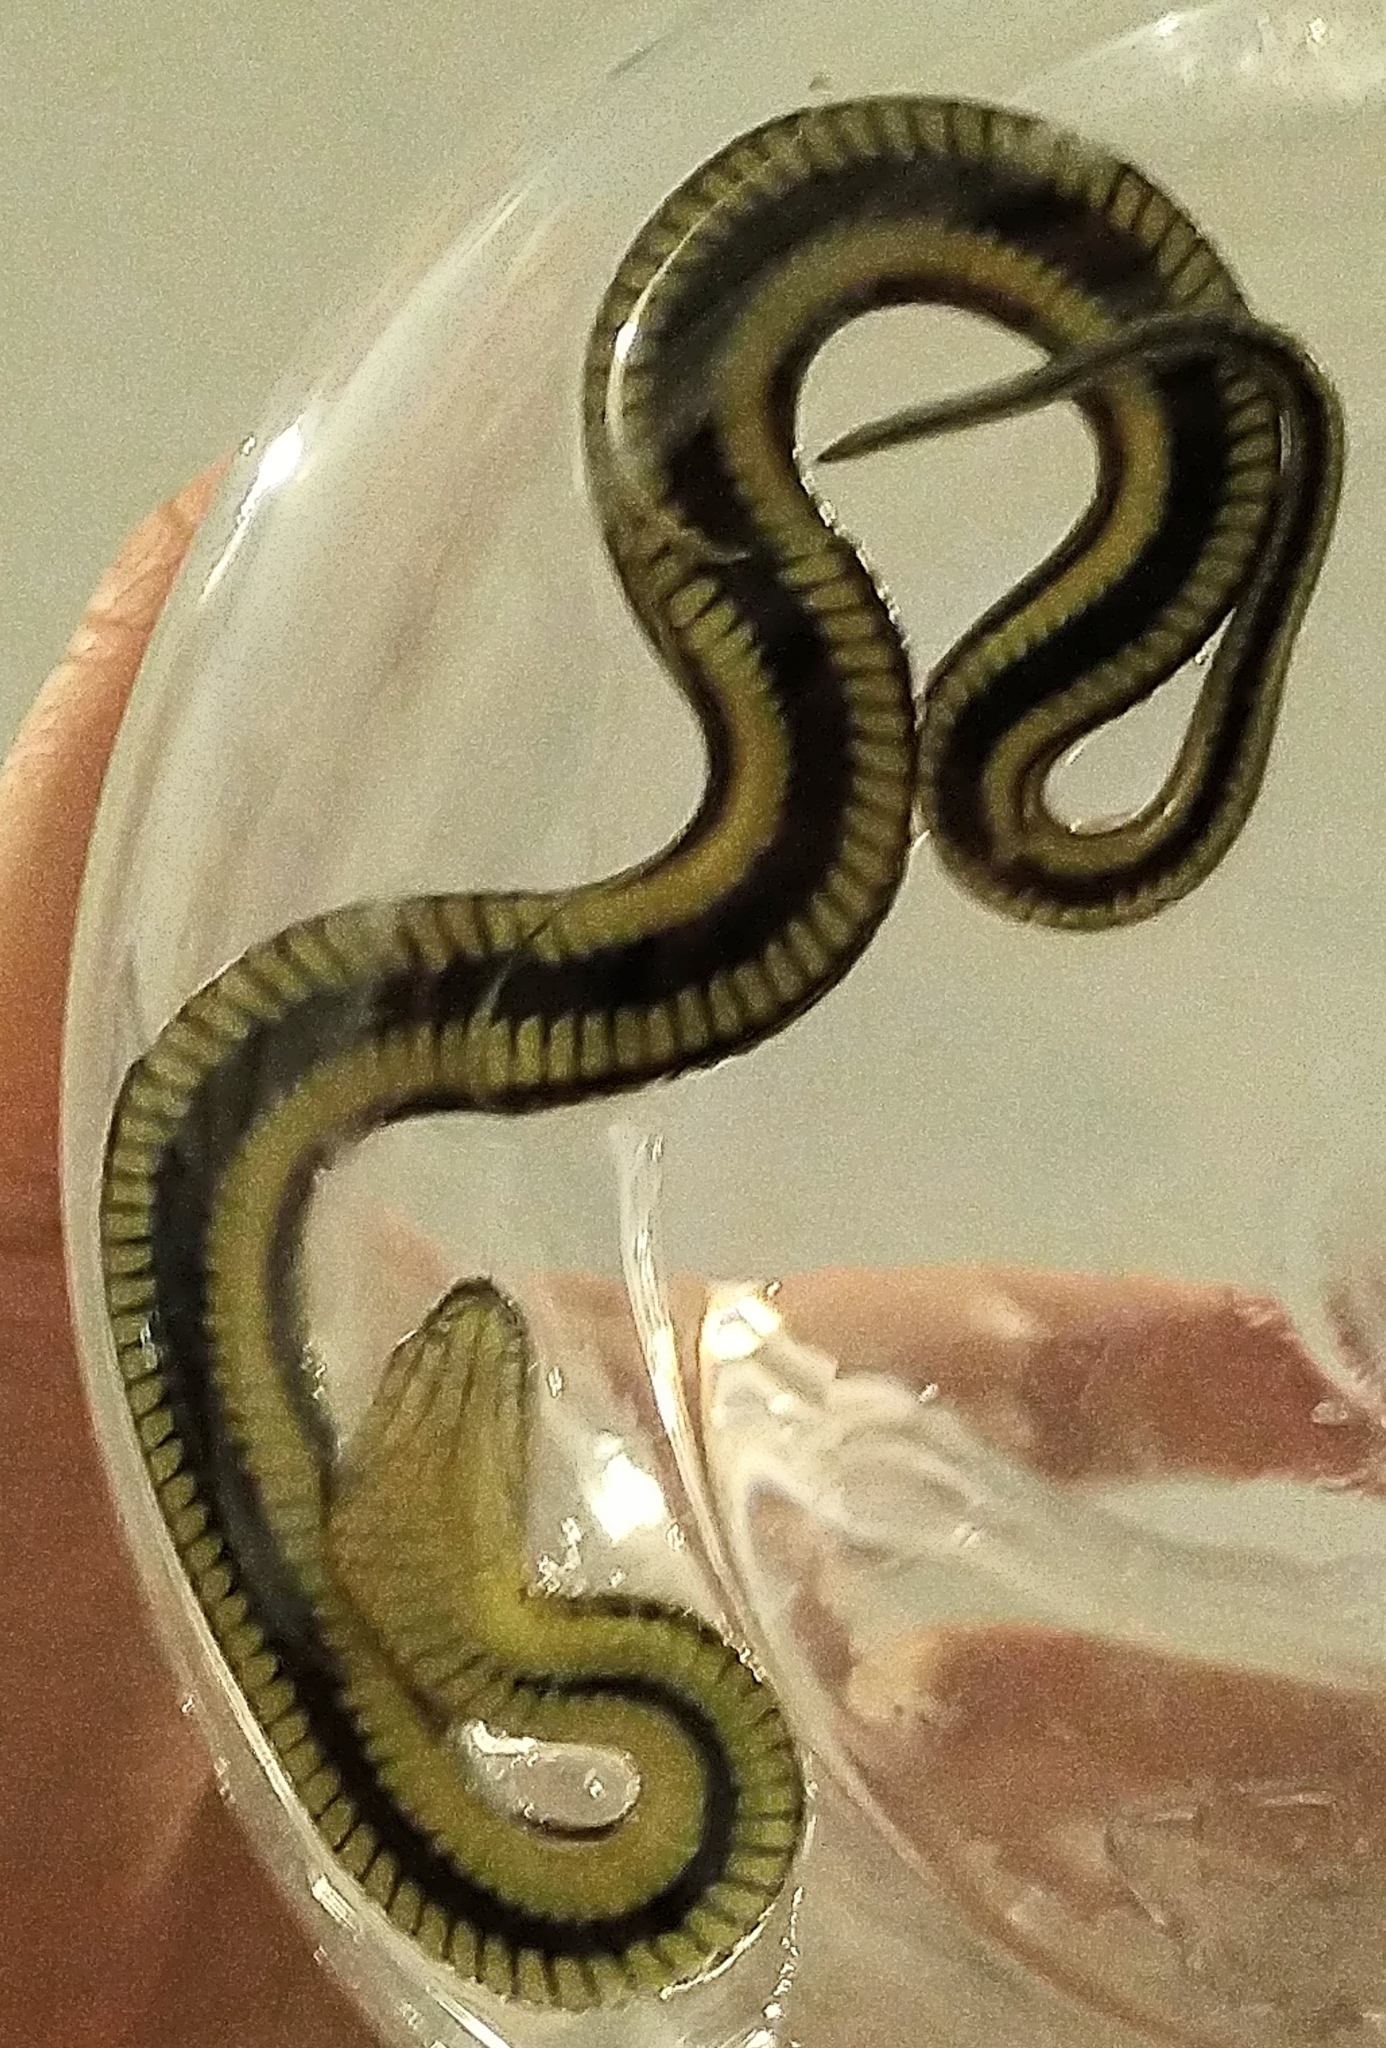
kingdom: Animalia
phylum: Chordata
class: Squamata
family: Colubridae
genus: Thamnophis
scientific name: Thamnophis melanogaster
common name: Blackbelly garter snake
